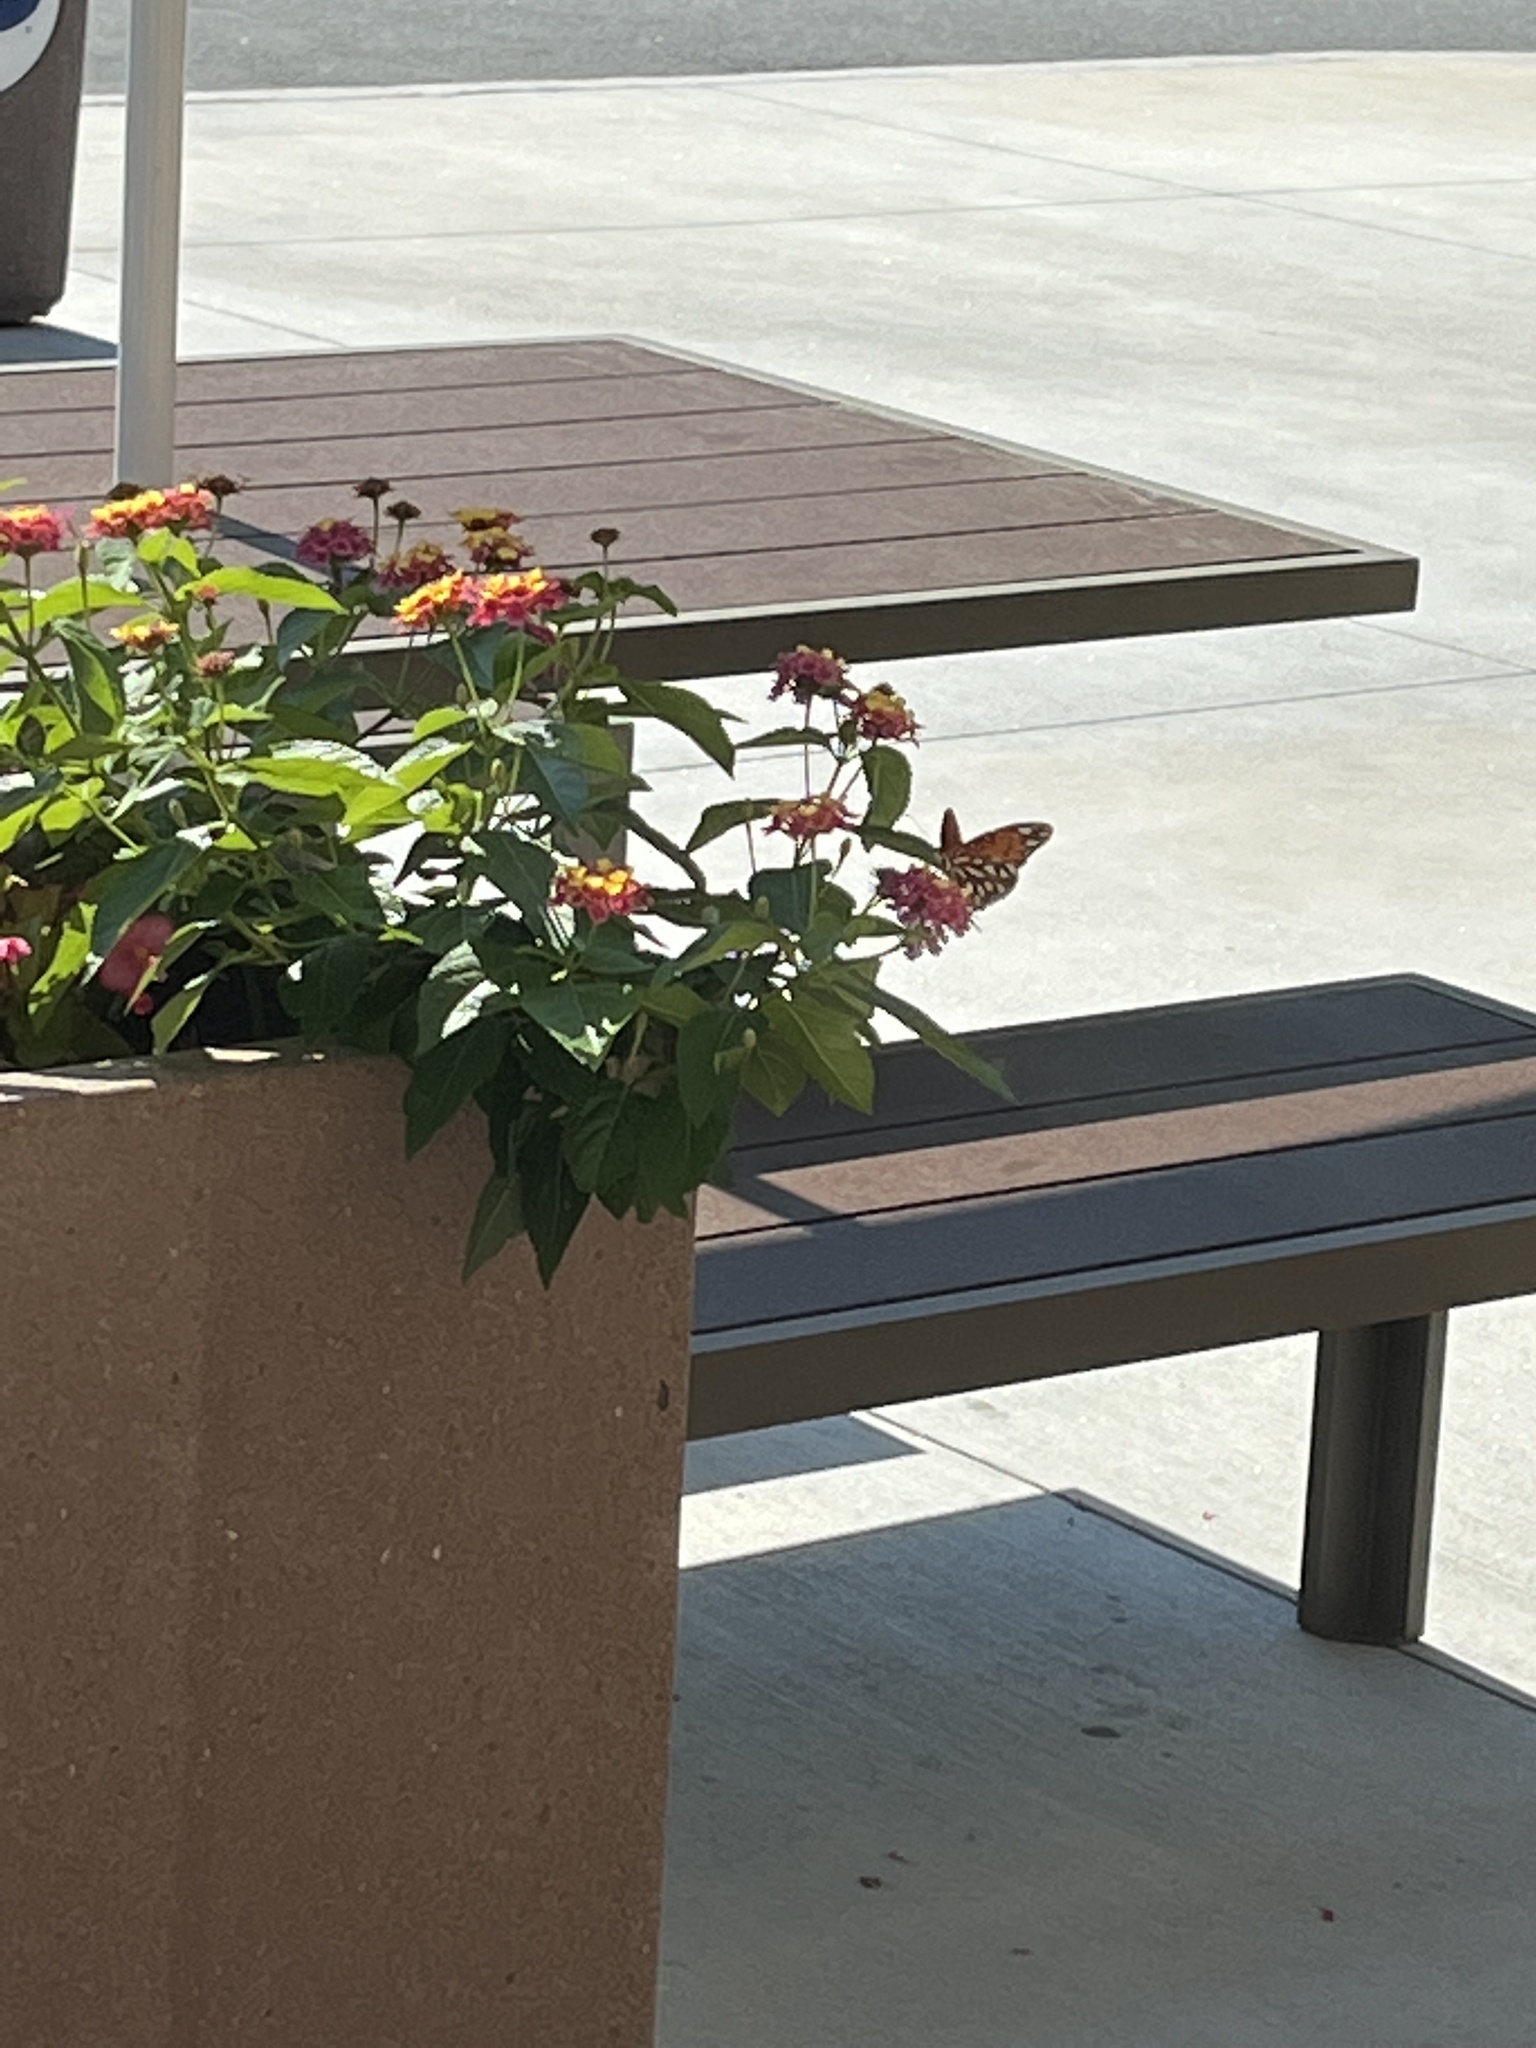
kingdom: Animalia
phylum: Arthropoda
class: Insecta
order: Lepidoptera
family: Nymphalidae
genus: Dione
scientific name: Dione vanillae
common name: Gulf fritillary
